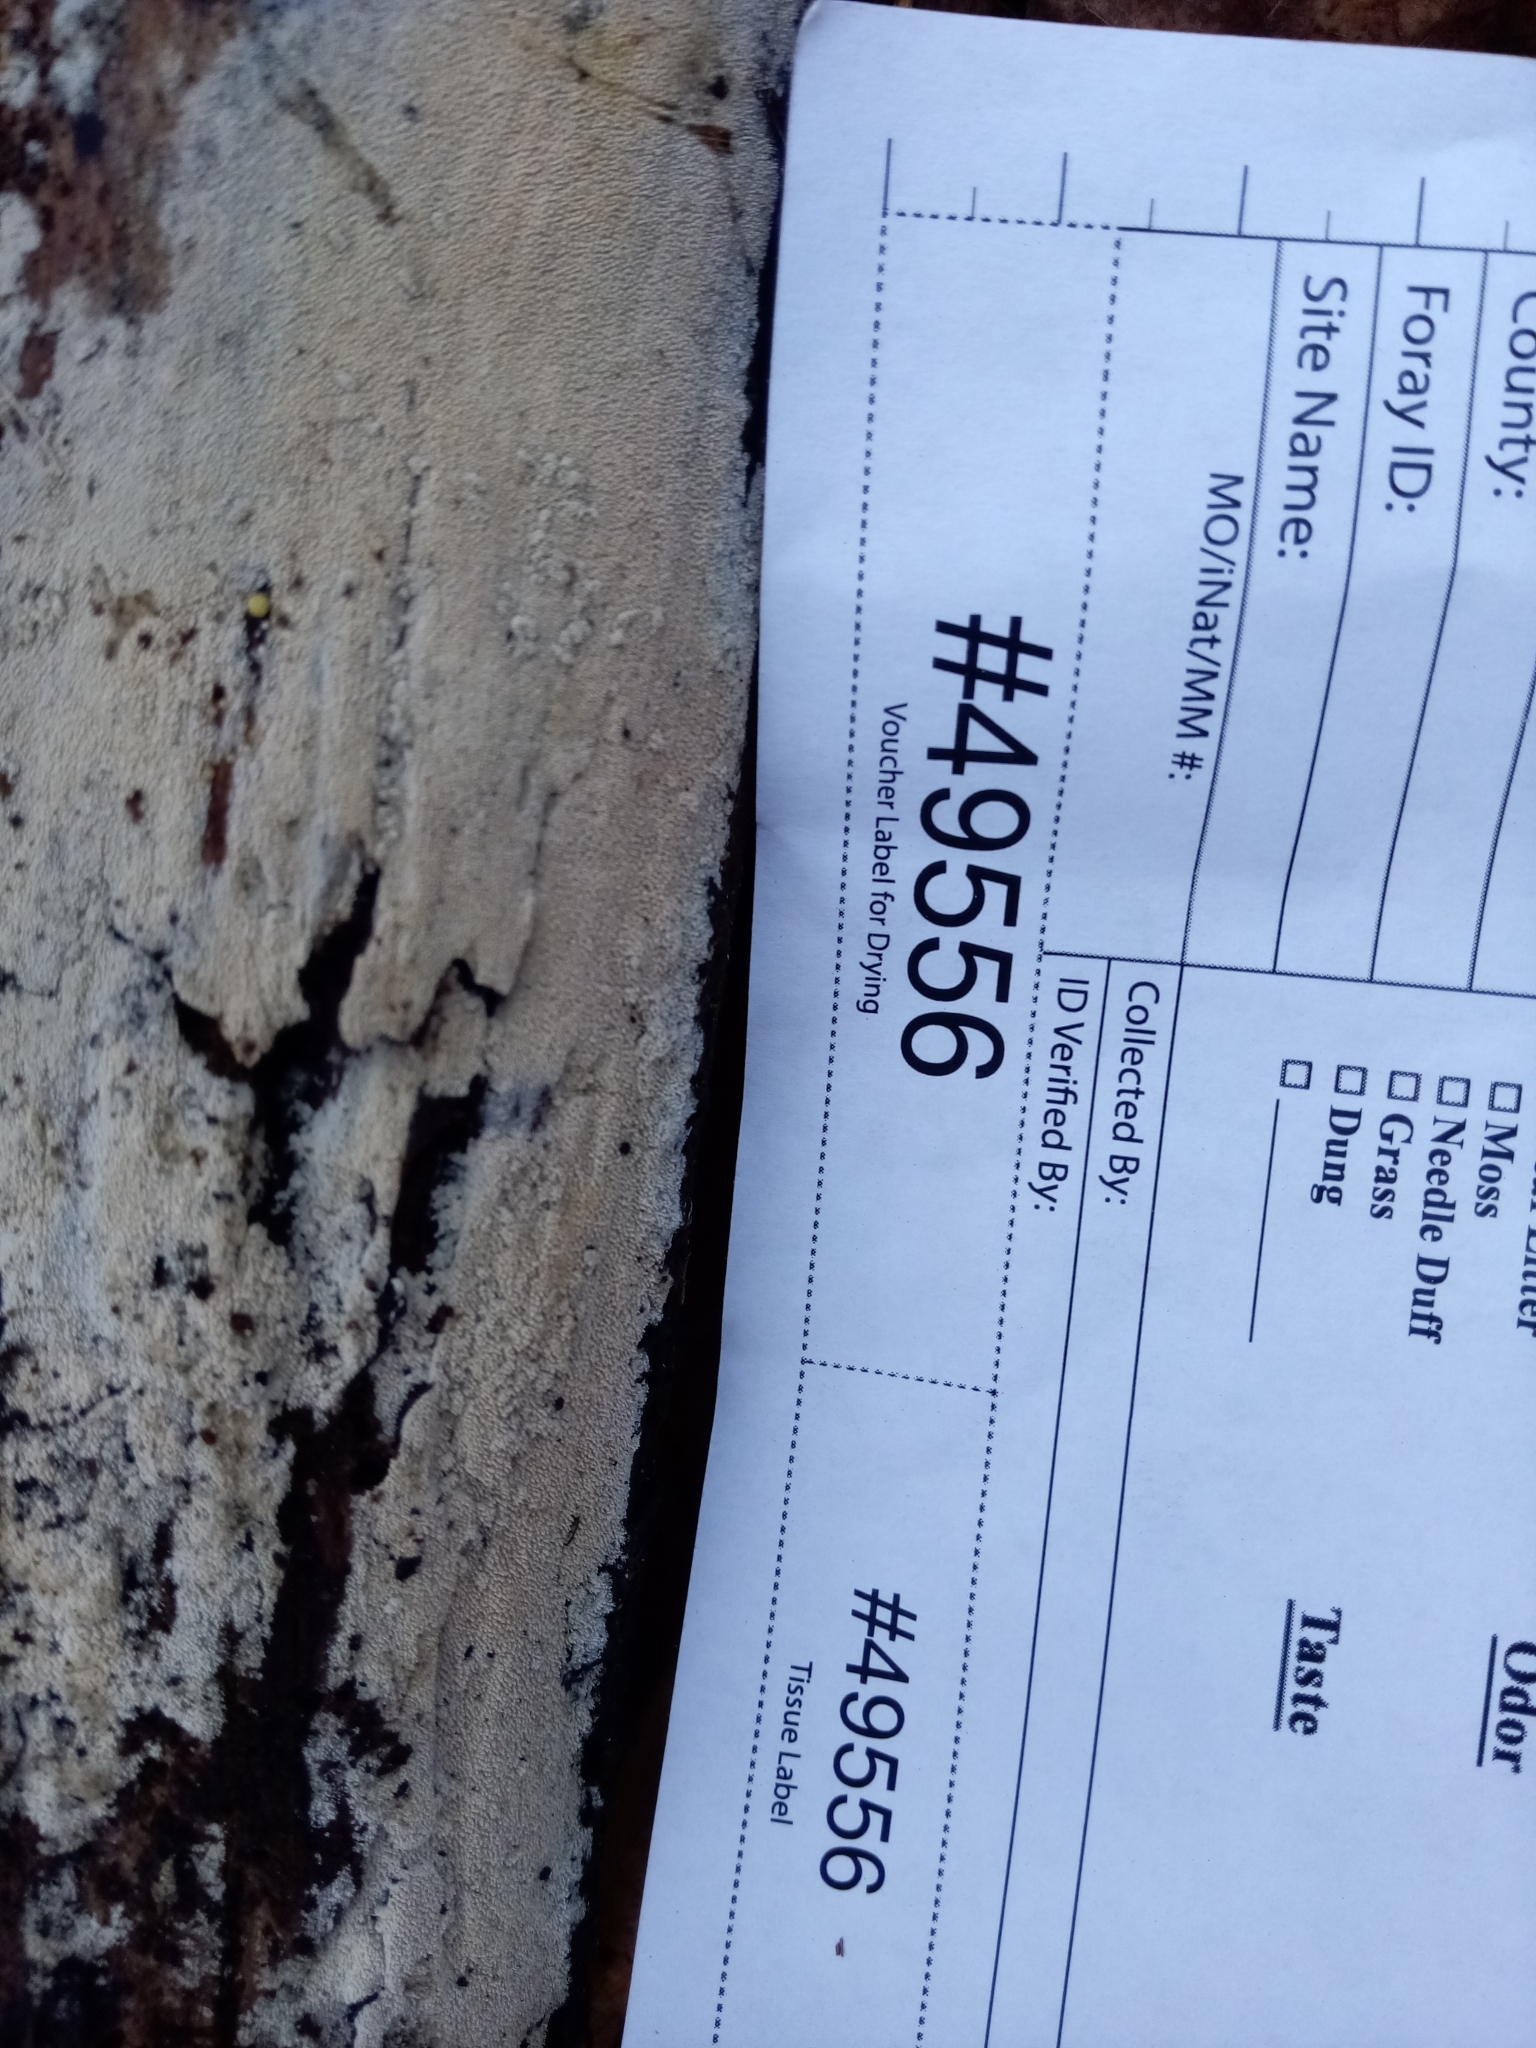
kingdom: Fungi
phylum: Basidiomycota
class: Agaricomycetes
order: Hymenochaetales
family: Hyphodontiaceae
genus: Hyphodontia
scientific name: Hyphodontia arguta
